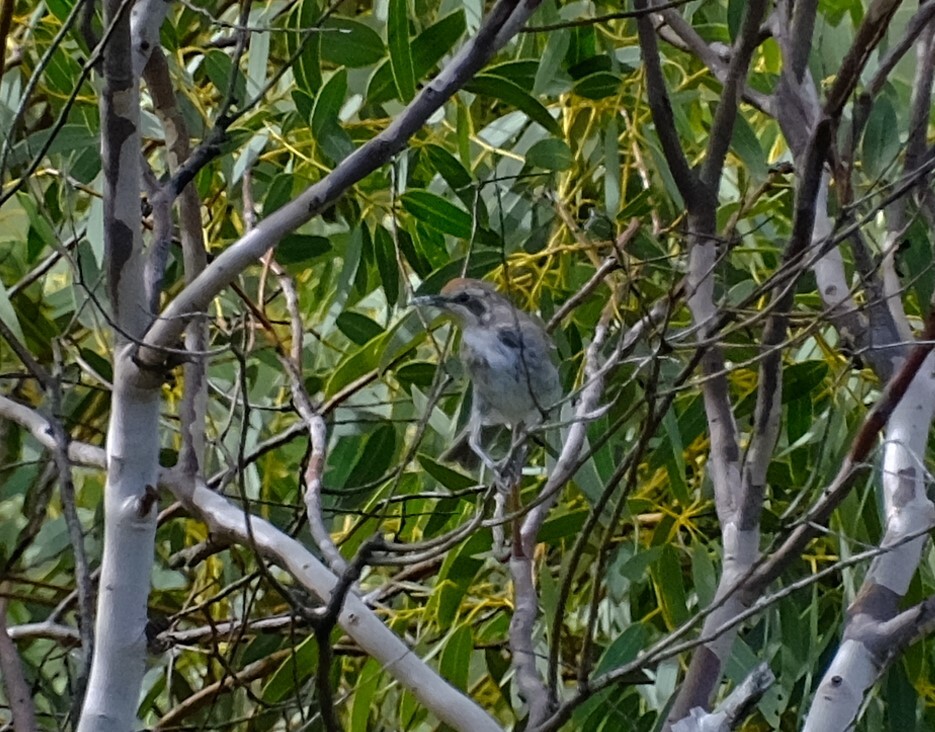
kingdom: Animalia
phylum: Chordata
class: Aves
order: Passeriformes
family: Meliphagidae
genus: Gliciphila
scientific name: Gliciphila melanops
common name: Tawny-crowned honeyeater
